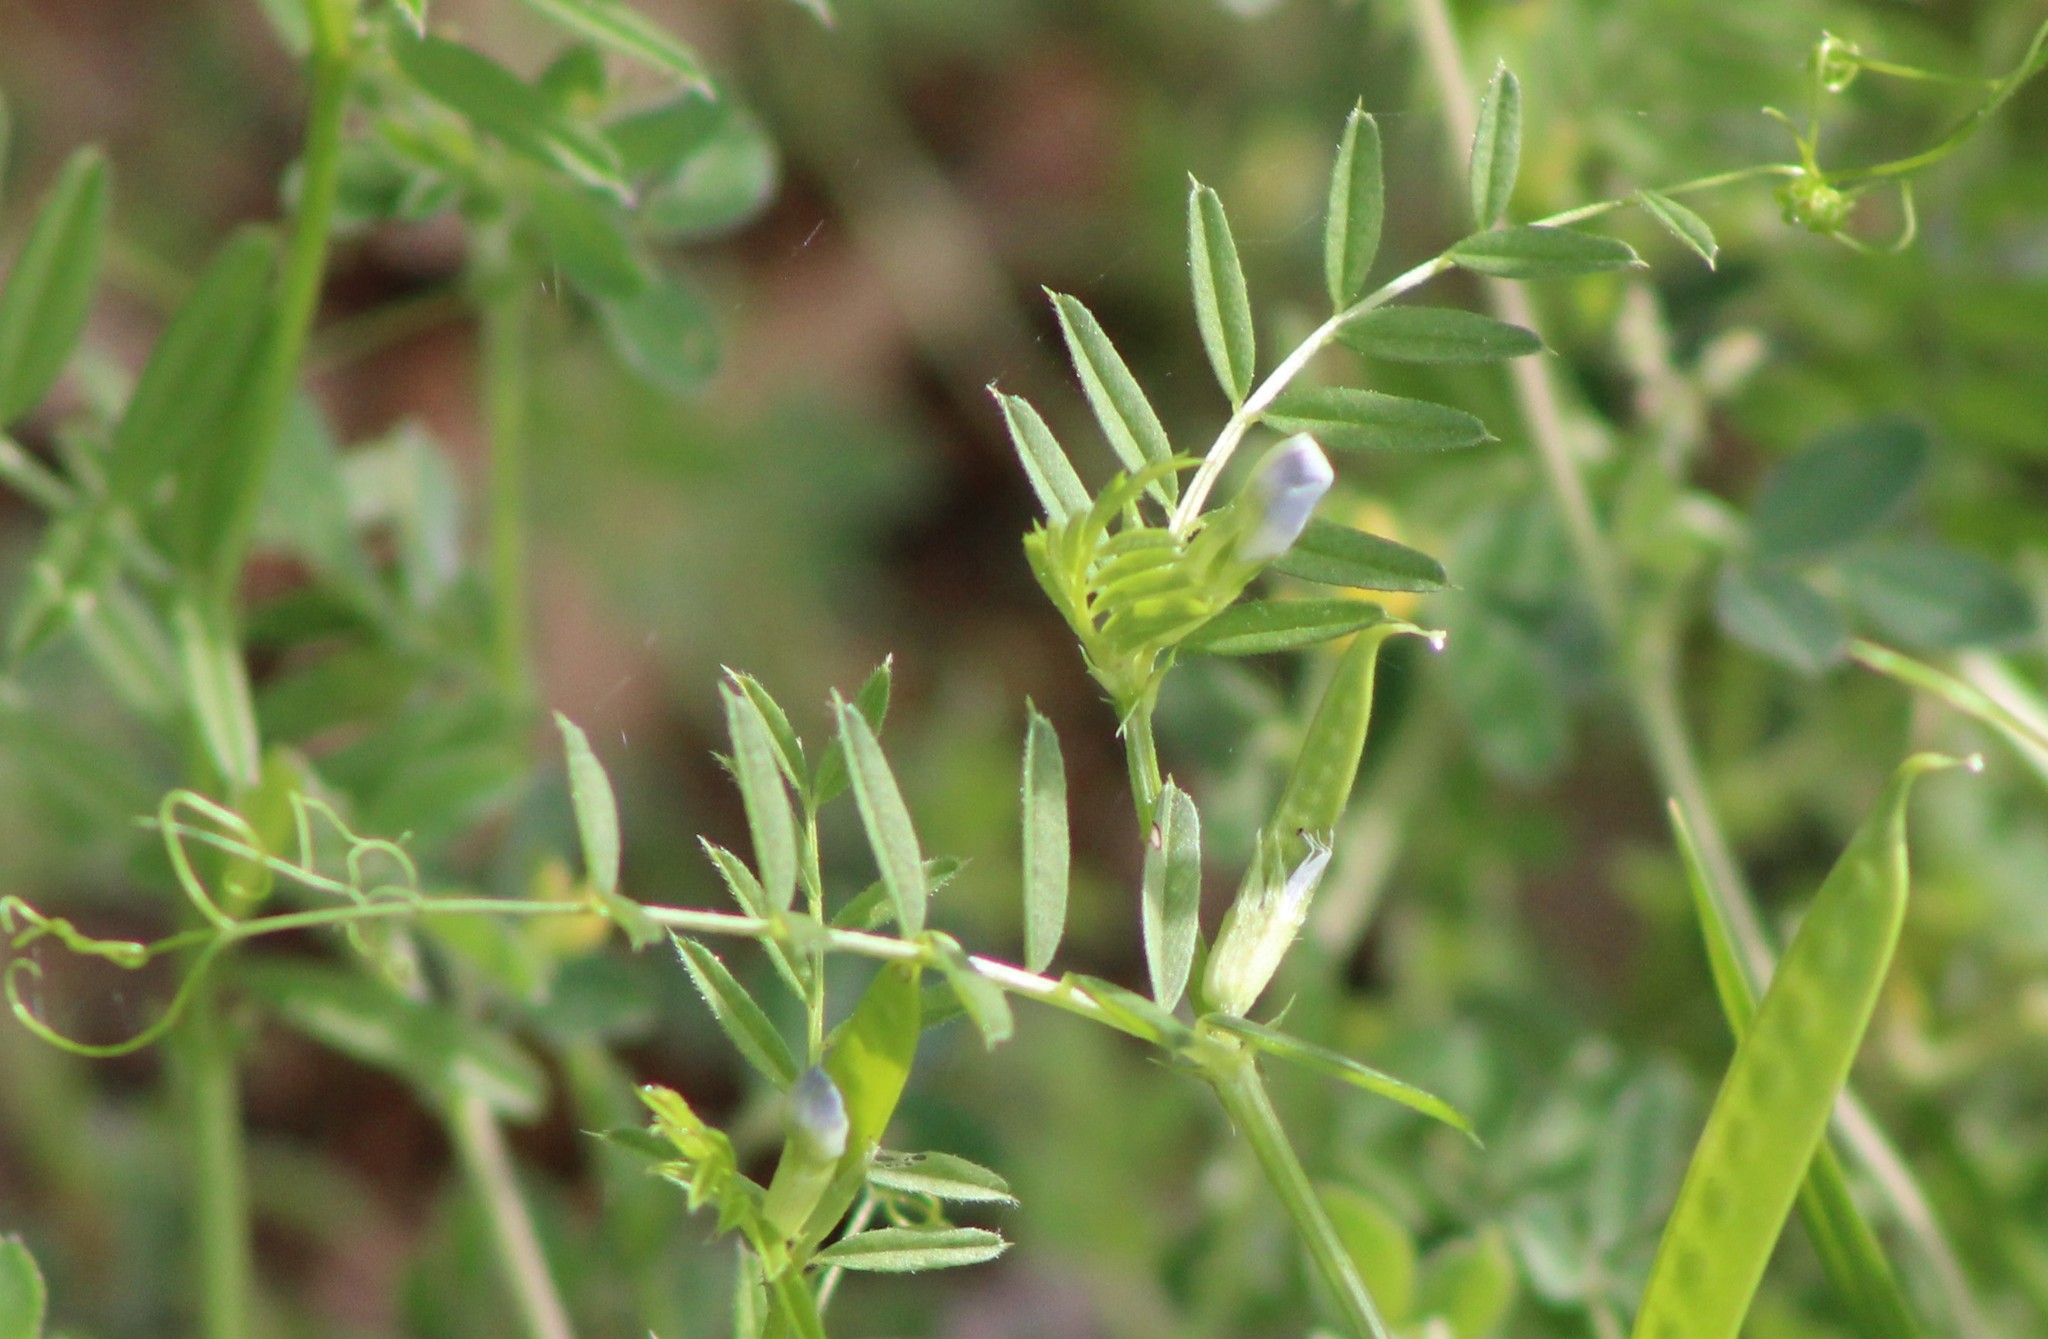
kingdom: Plantae
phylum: Tracheophyta
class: Magnoliopsida
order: Fabales
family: Fabaceae
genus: Vicia
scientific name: Vicia sativa
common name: Garden vetch
